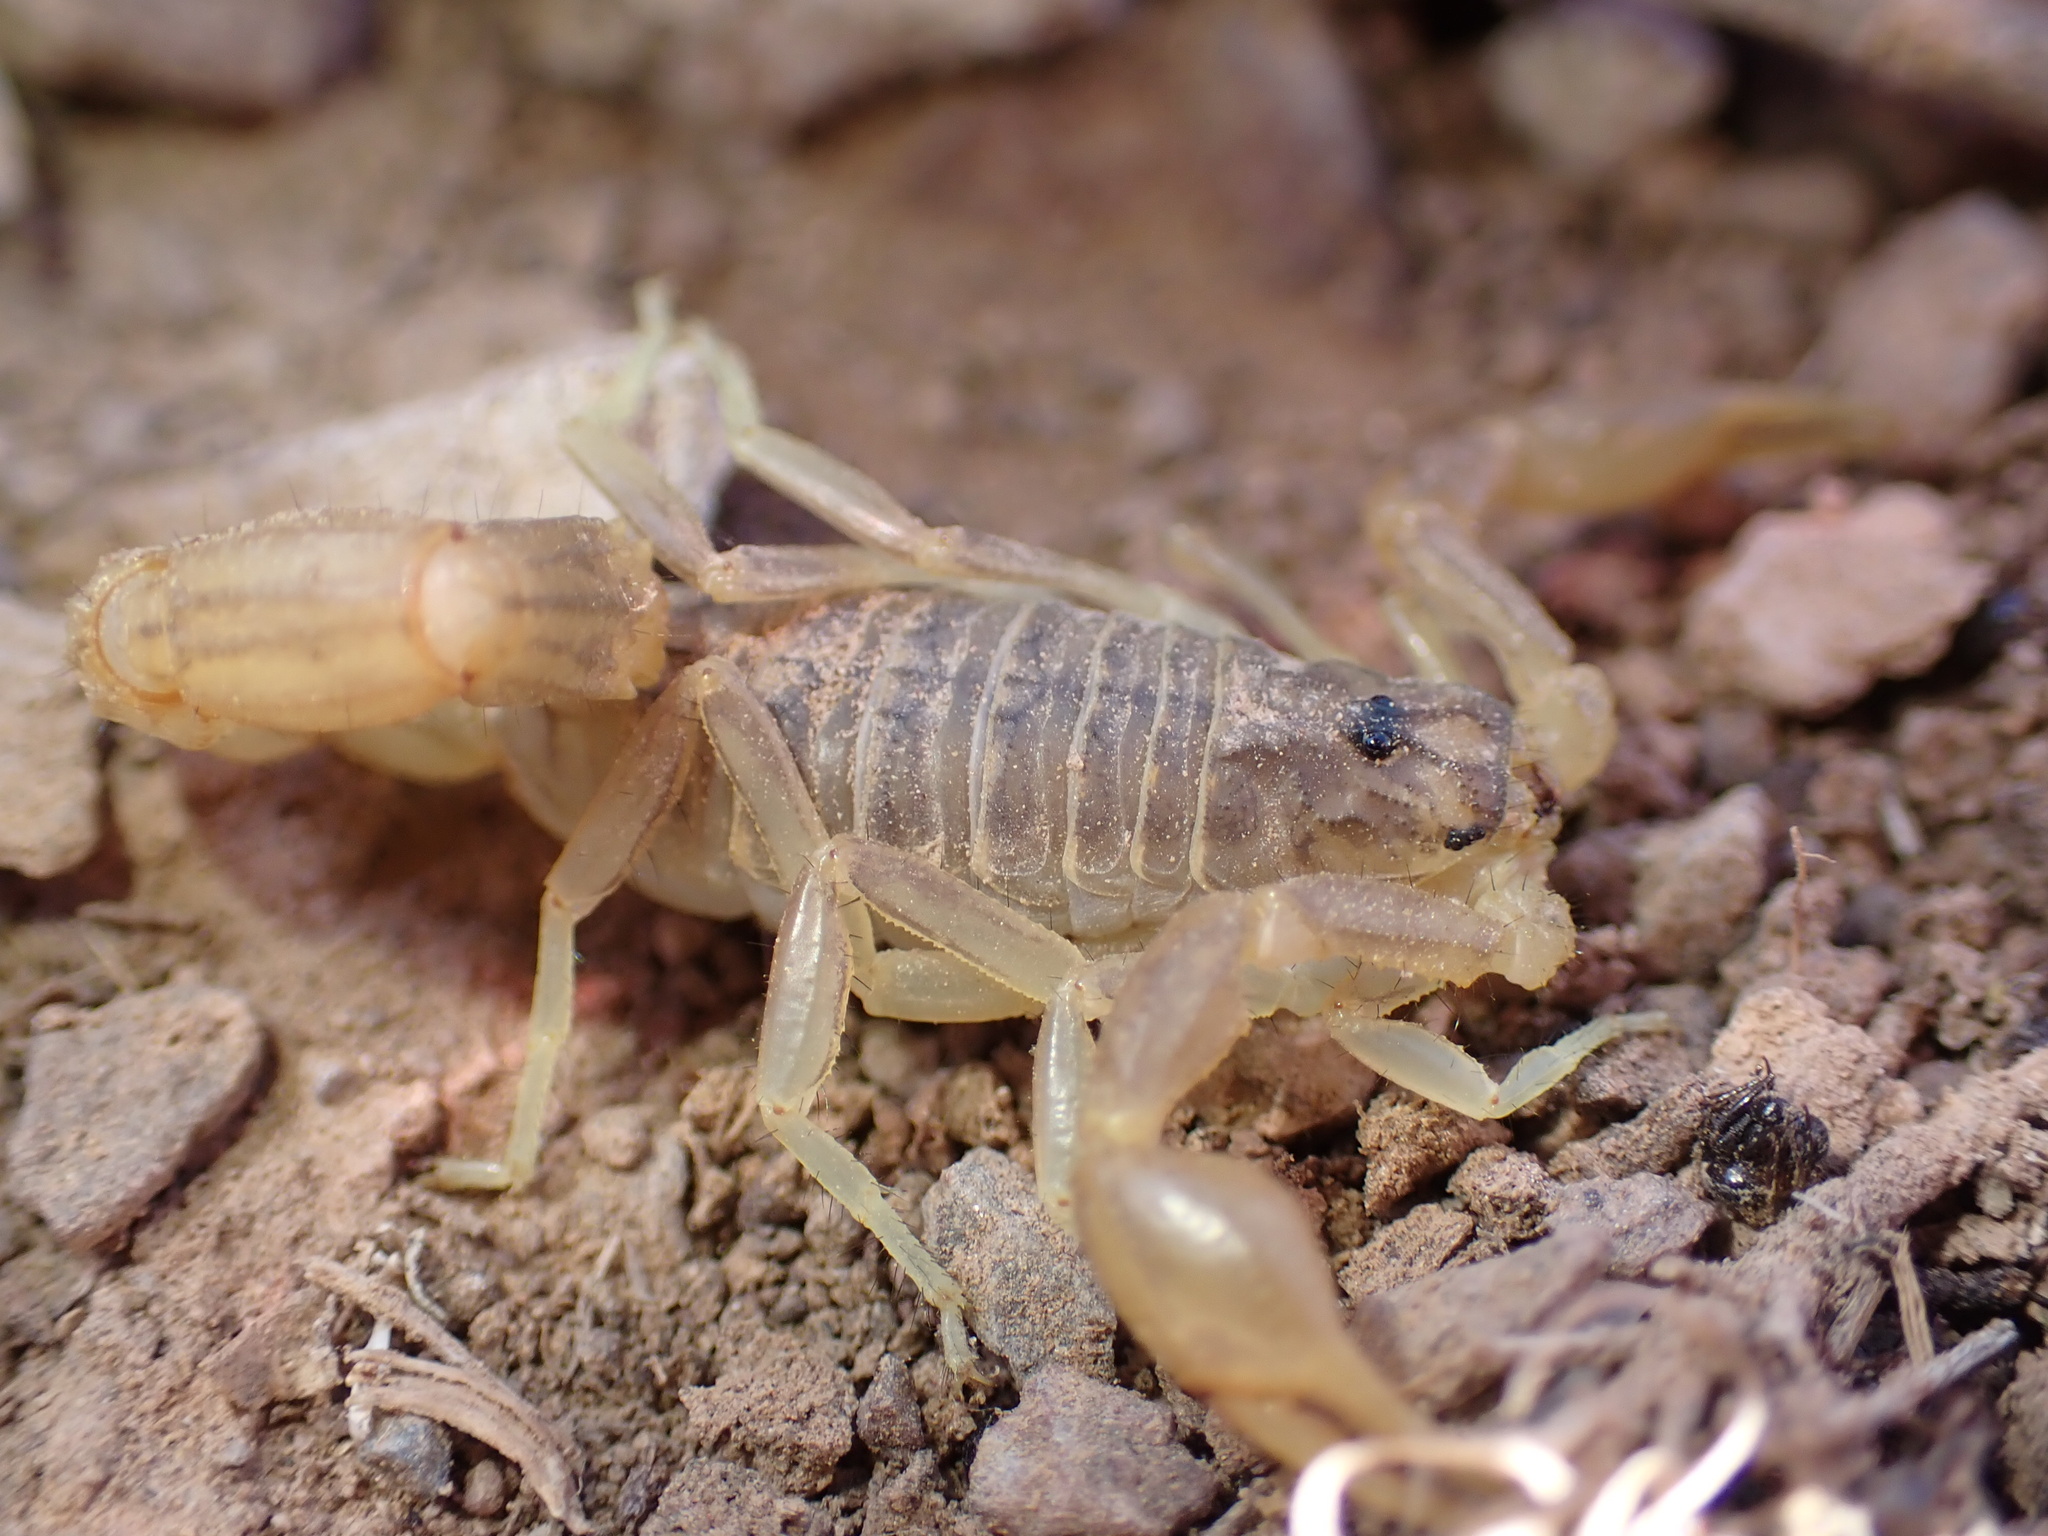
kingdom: Animalia
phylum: Arthropoda
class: Arachnida
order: Scorpiones
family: Buthidae
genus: Mesobuthus
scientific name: Mesobuthus afghanus
